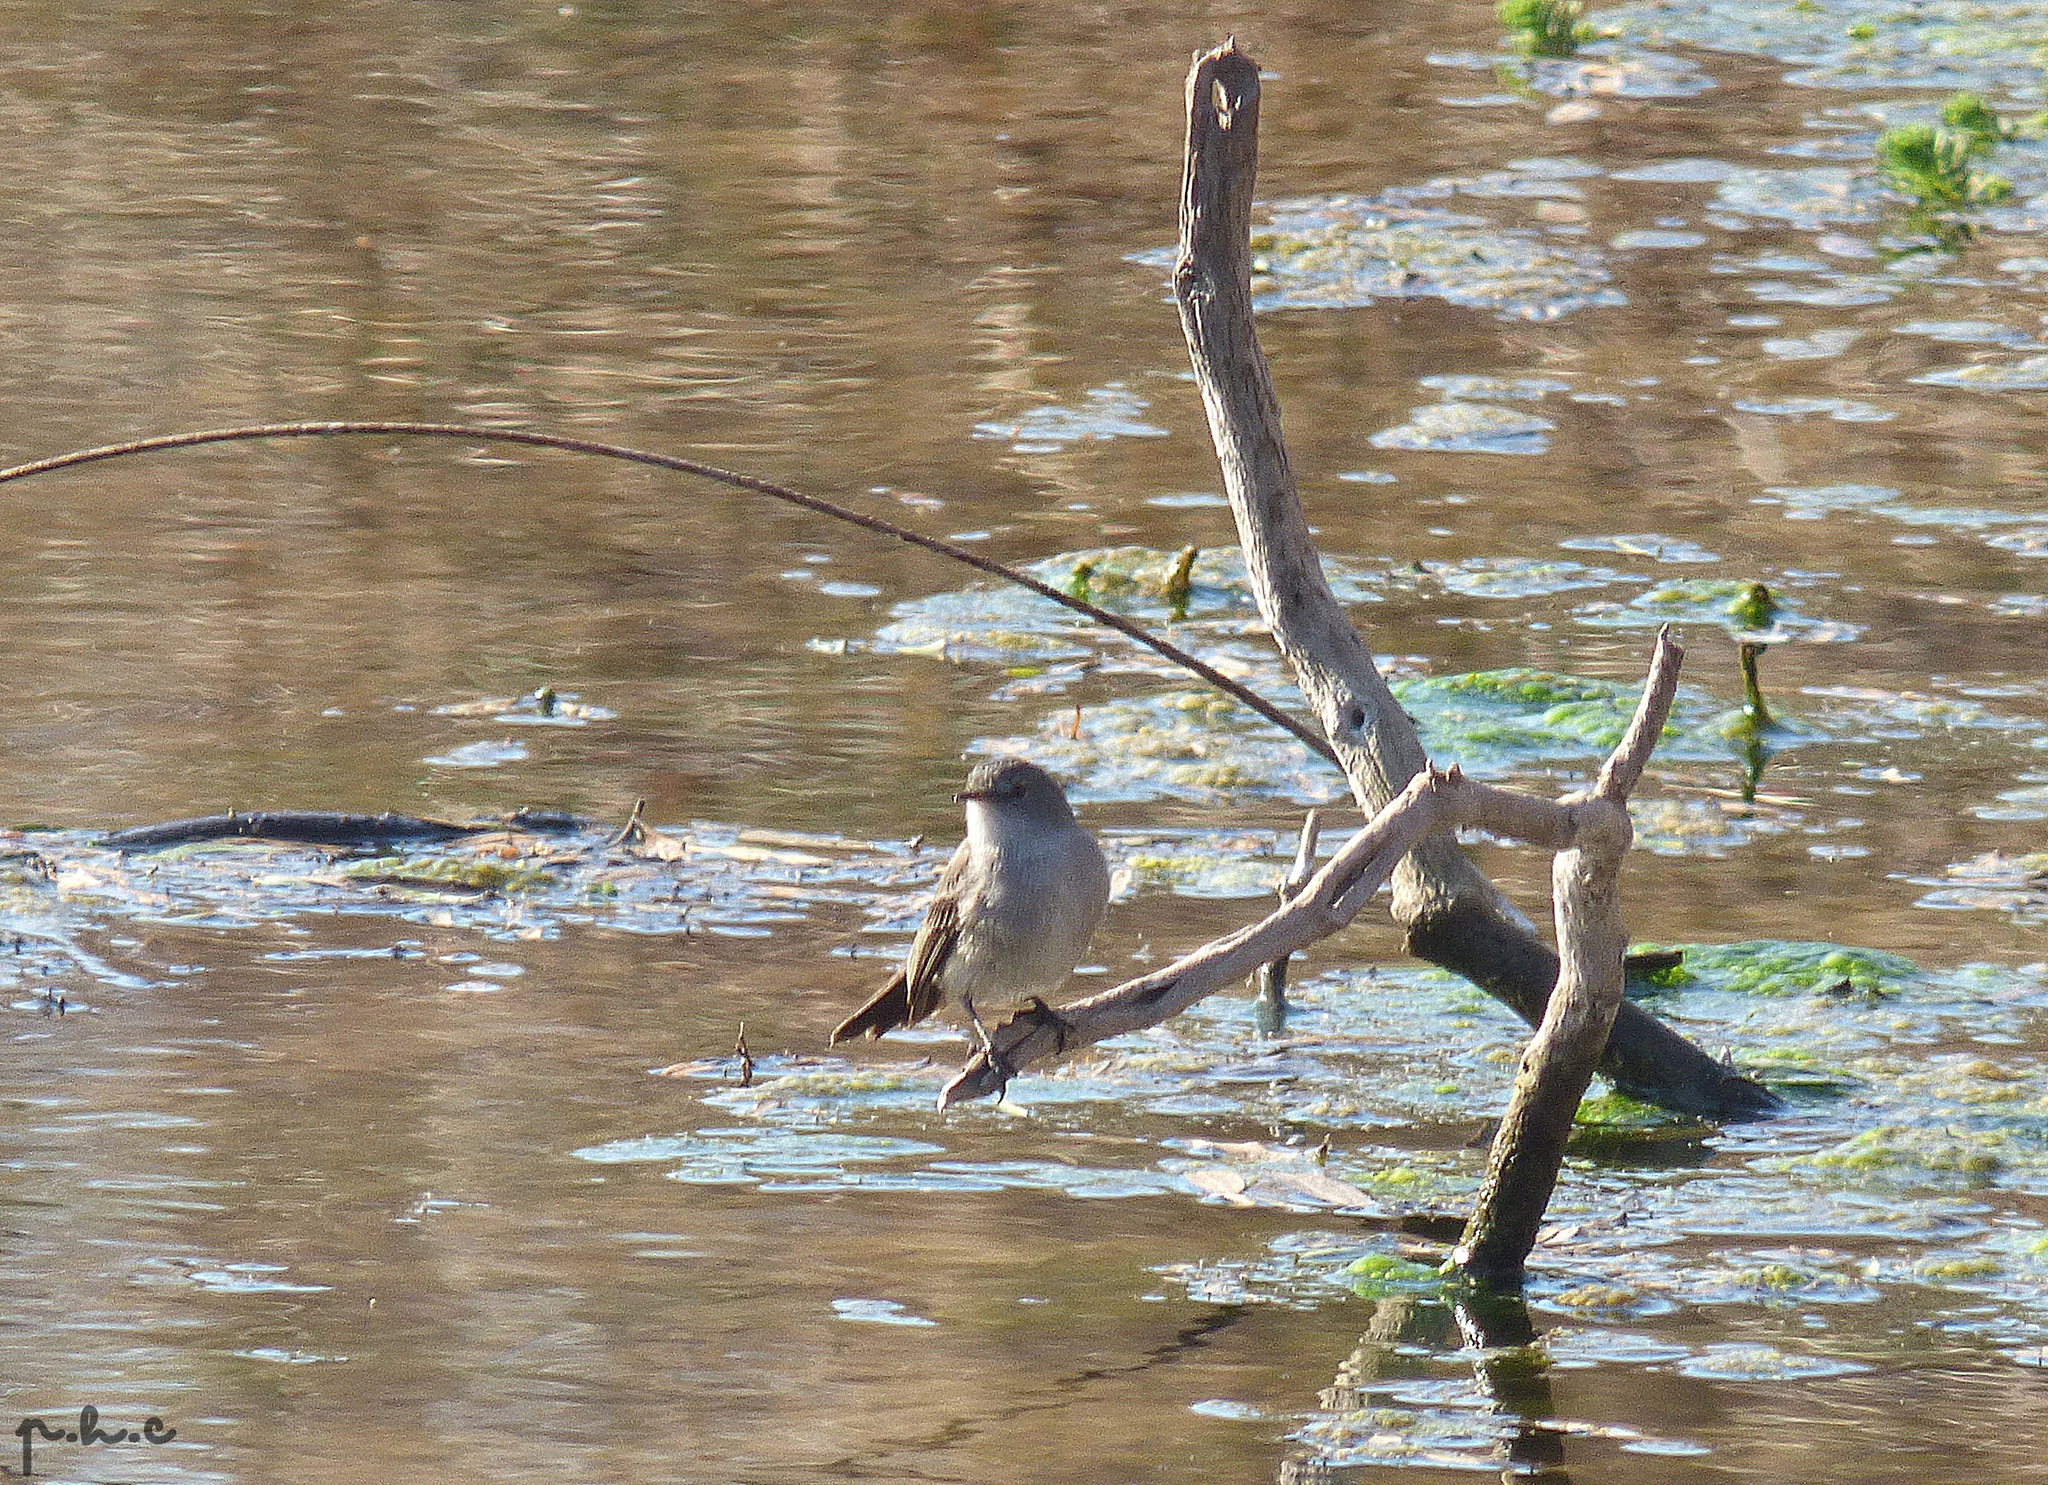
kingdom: Animalia
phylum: Chordata
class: Aves
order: Passeriformes
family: Tyrannidae
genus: Serpophaga
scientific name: Serpophaga nigricans
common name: Sooty tyrannulet
